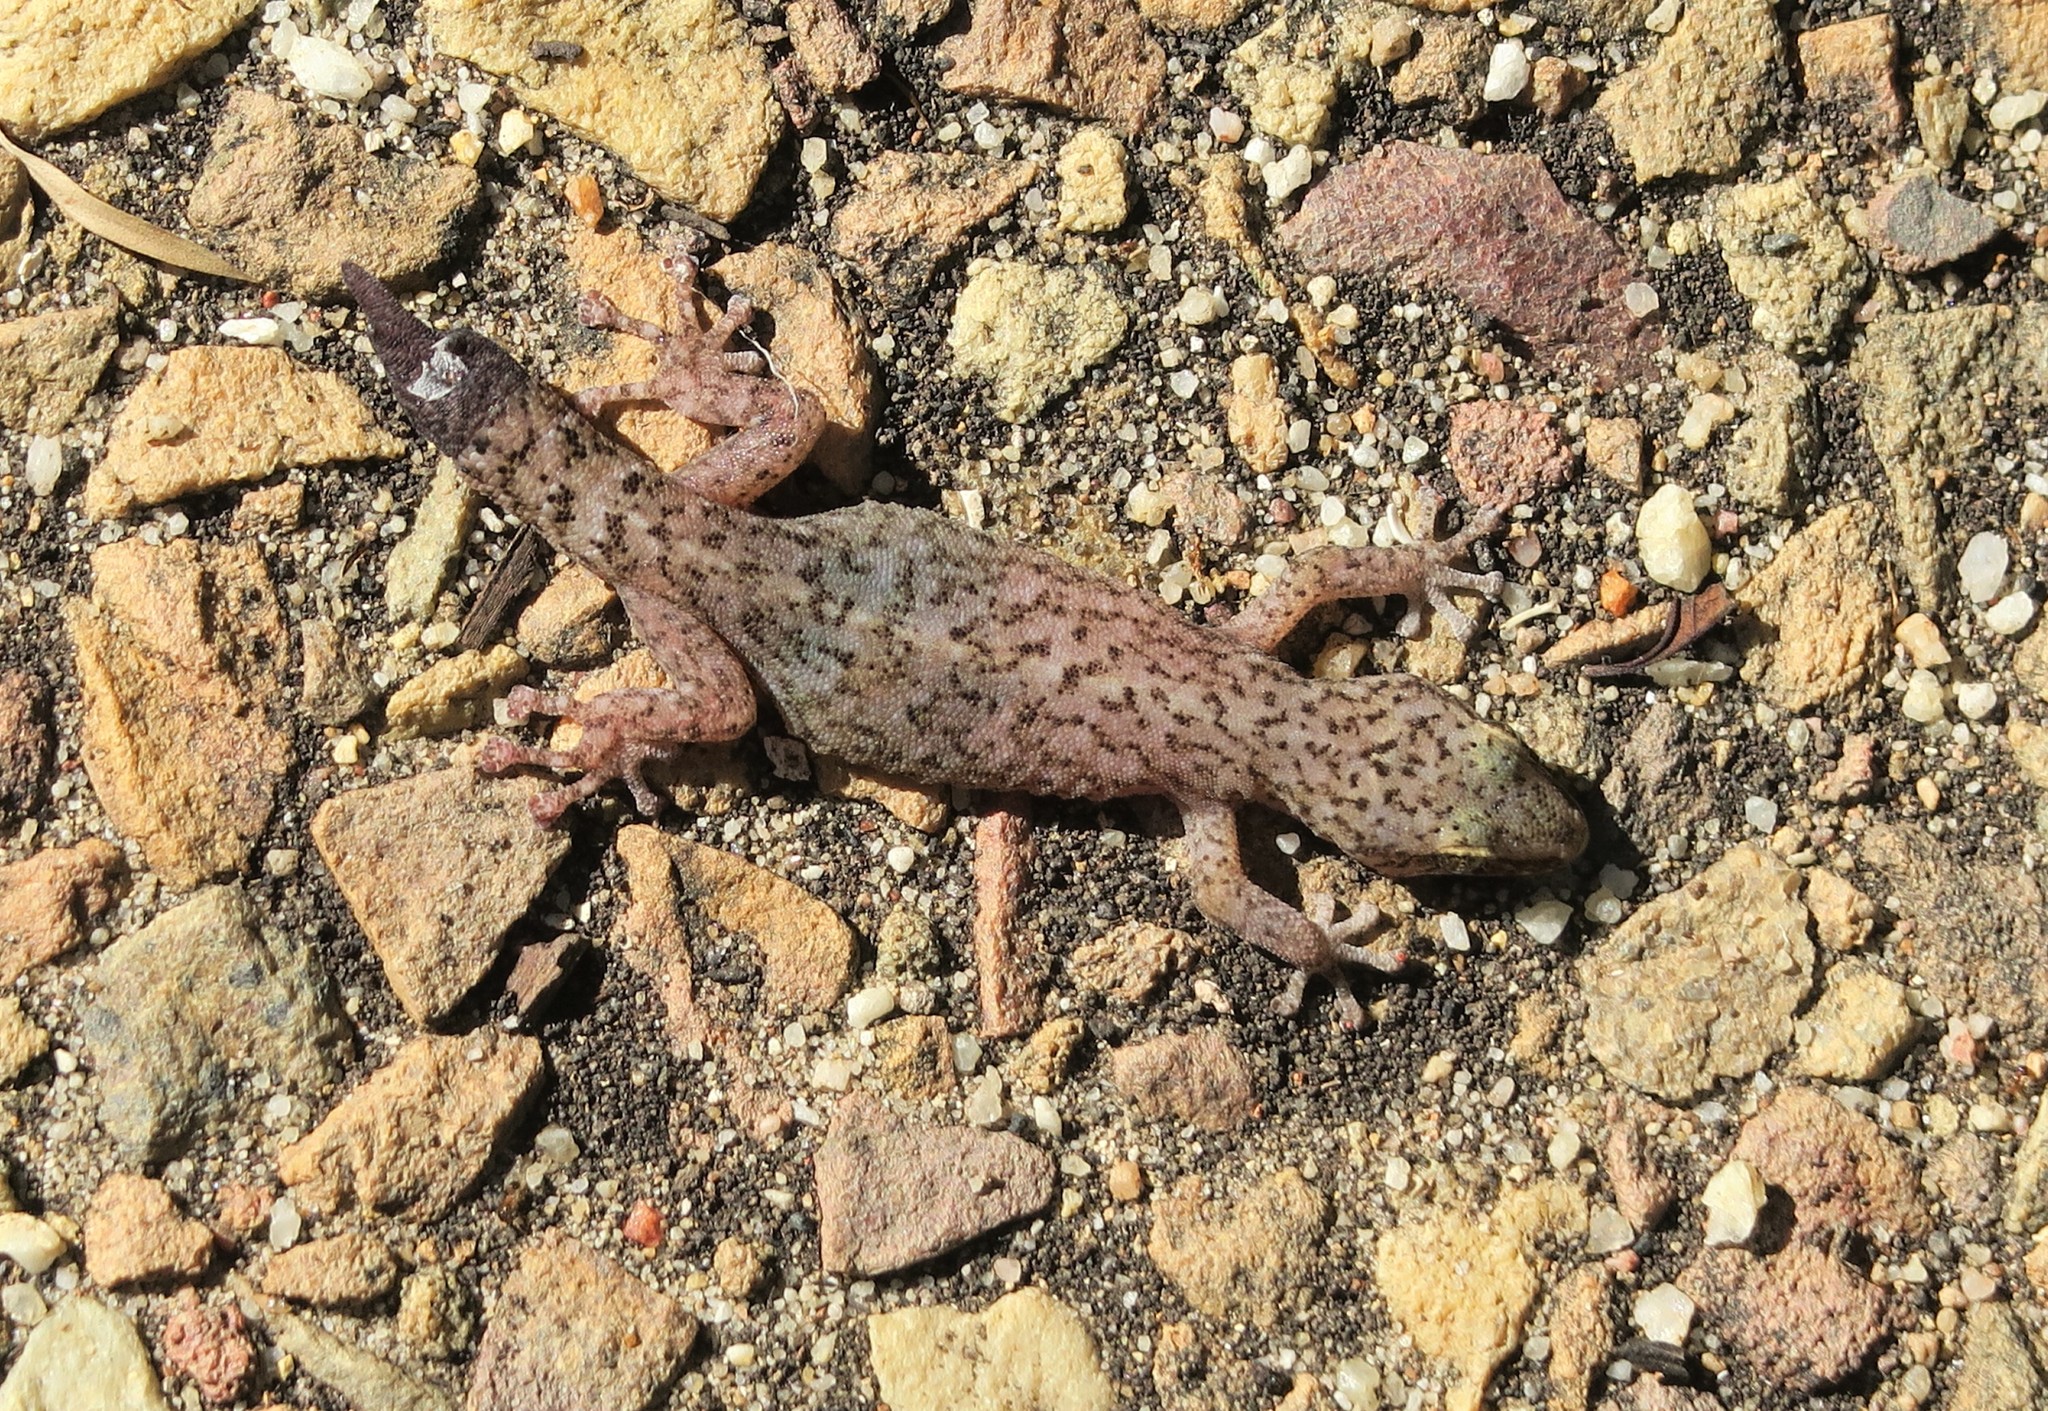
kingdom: Animalia
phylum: Chordata
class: Squamata
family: Gekkonidae
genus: Afrogecko
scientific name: Afrogecko porphyreus
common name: Marbled leaf-toed gecko
